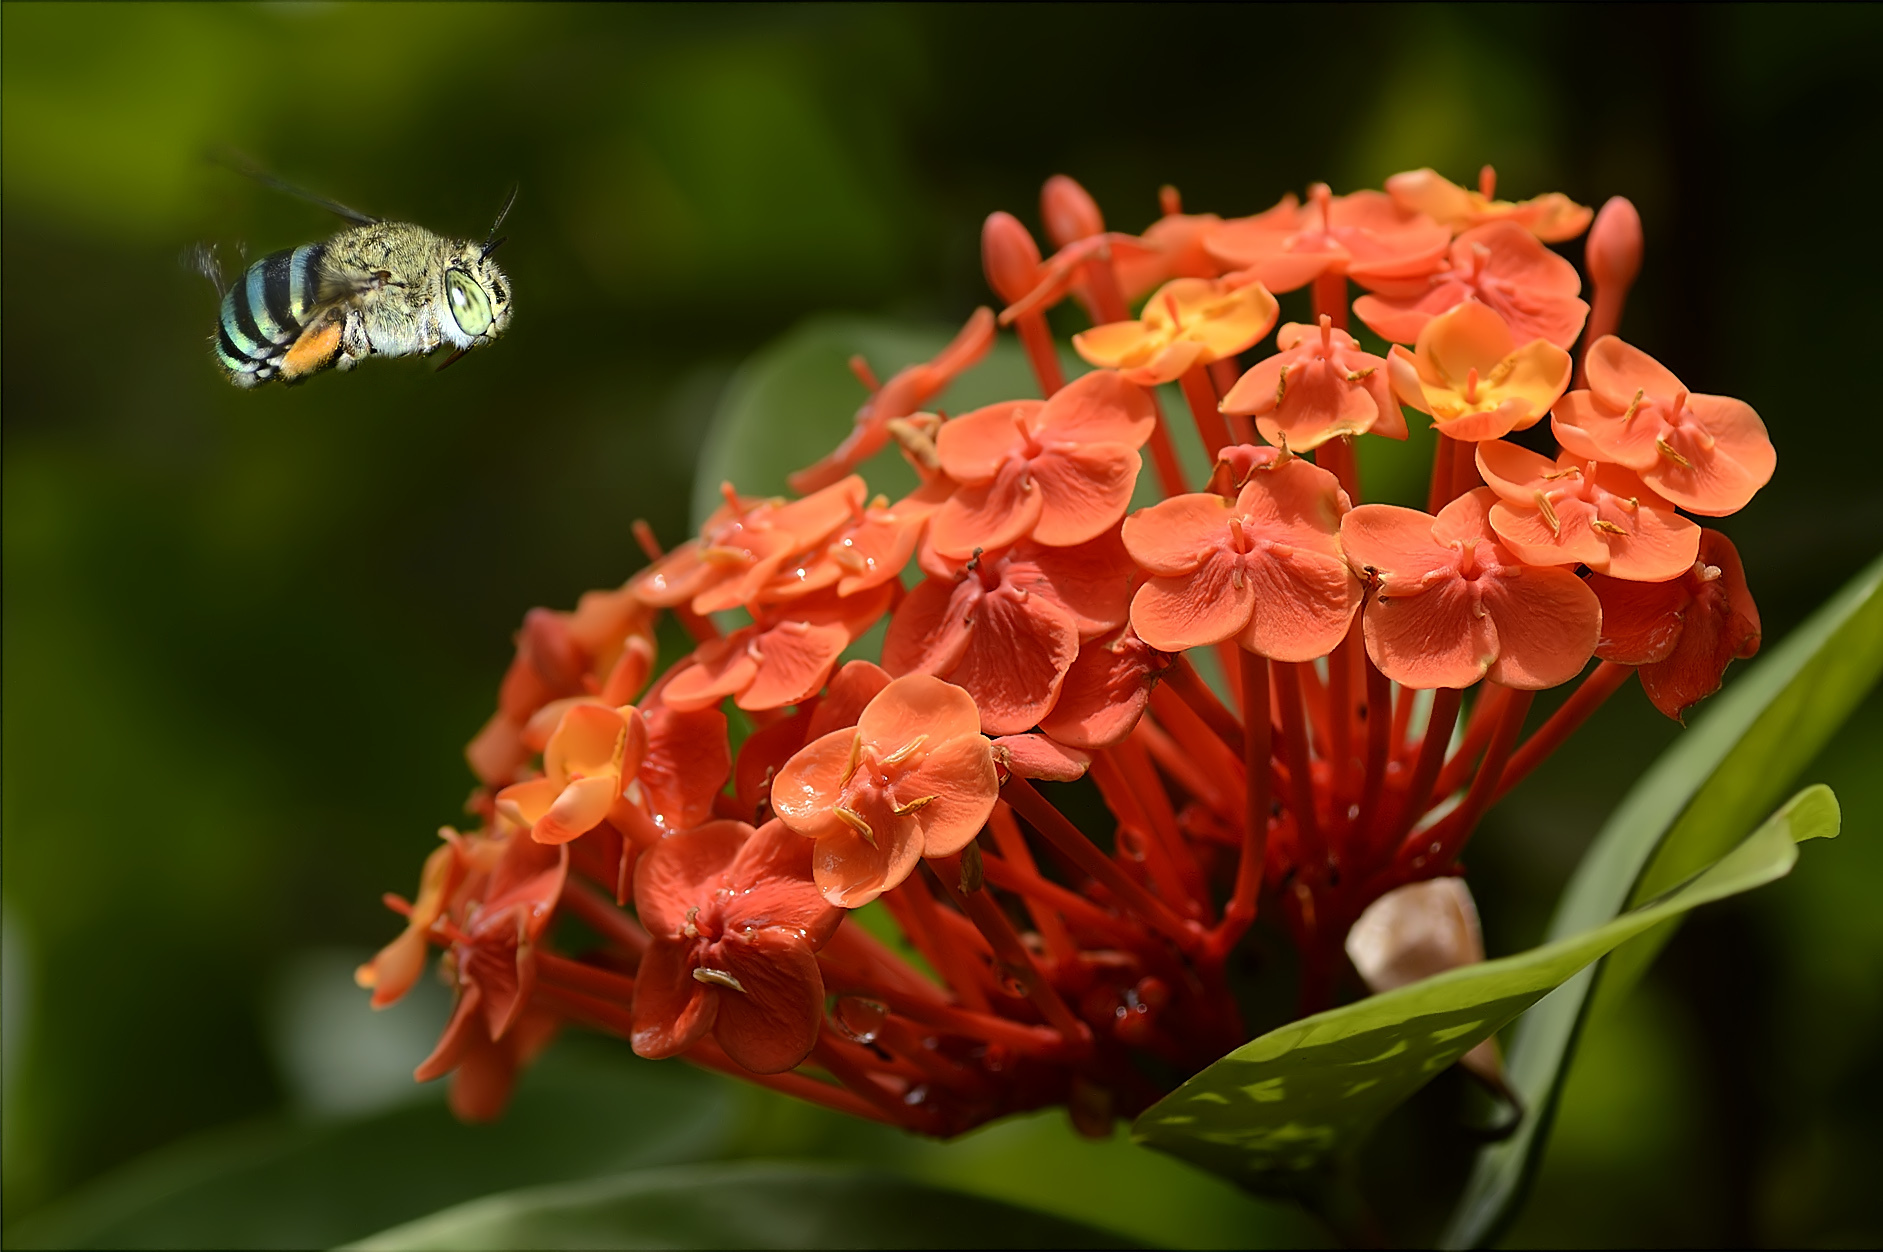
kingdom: Plantae
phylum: Tracheophyta
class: Magnoliopsida
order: Gentianales
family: Rubiaceae
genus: Ixora
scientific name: Ixora chinensis
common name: Chinese ixora
